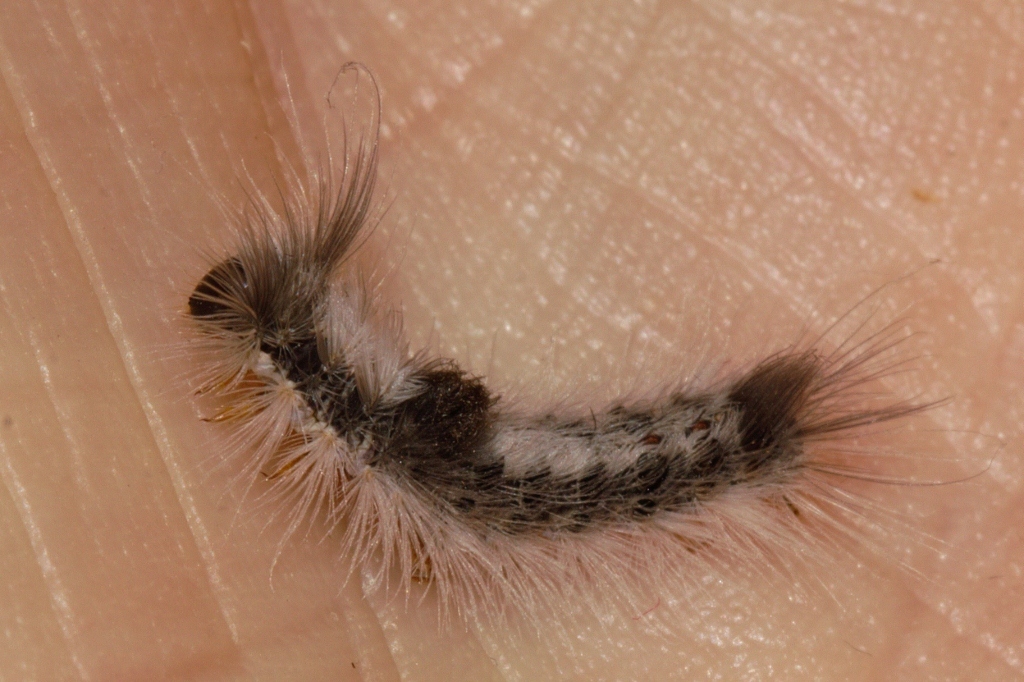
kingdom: Animalia
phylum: Arthropoda
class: Insecta
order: Lepidoptera
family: Erebidae
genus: Euproctis
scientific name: Euproctis bicolor
